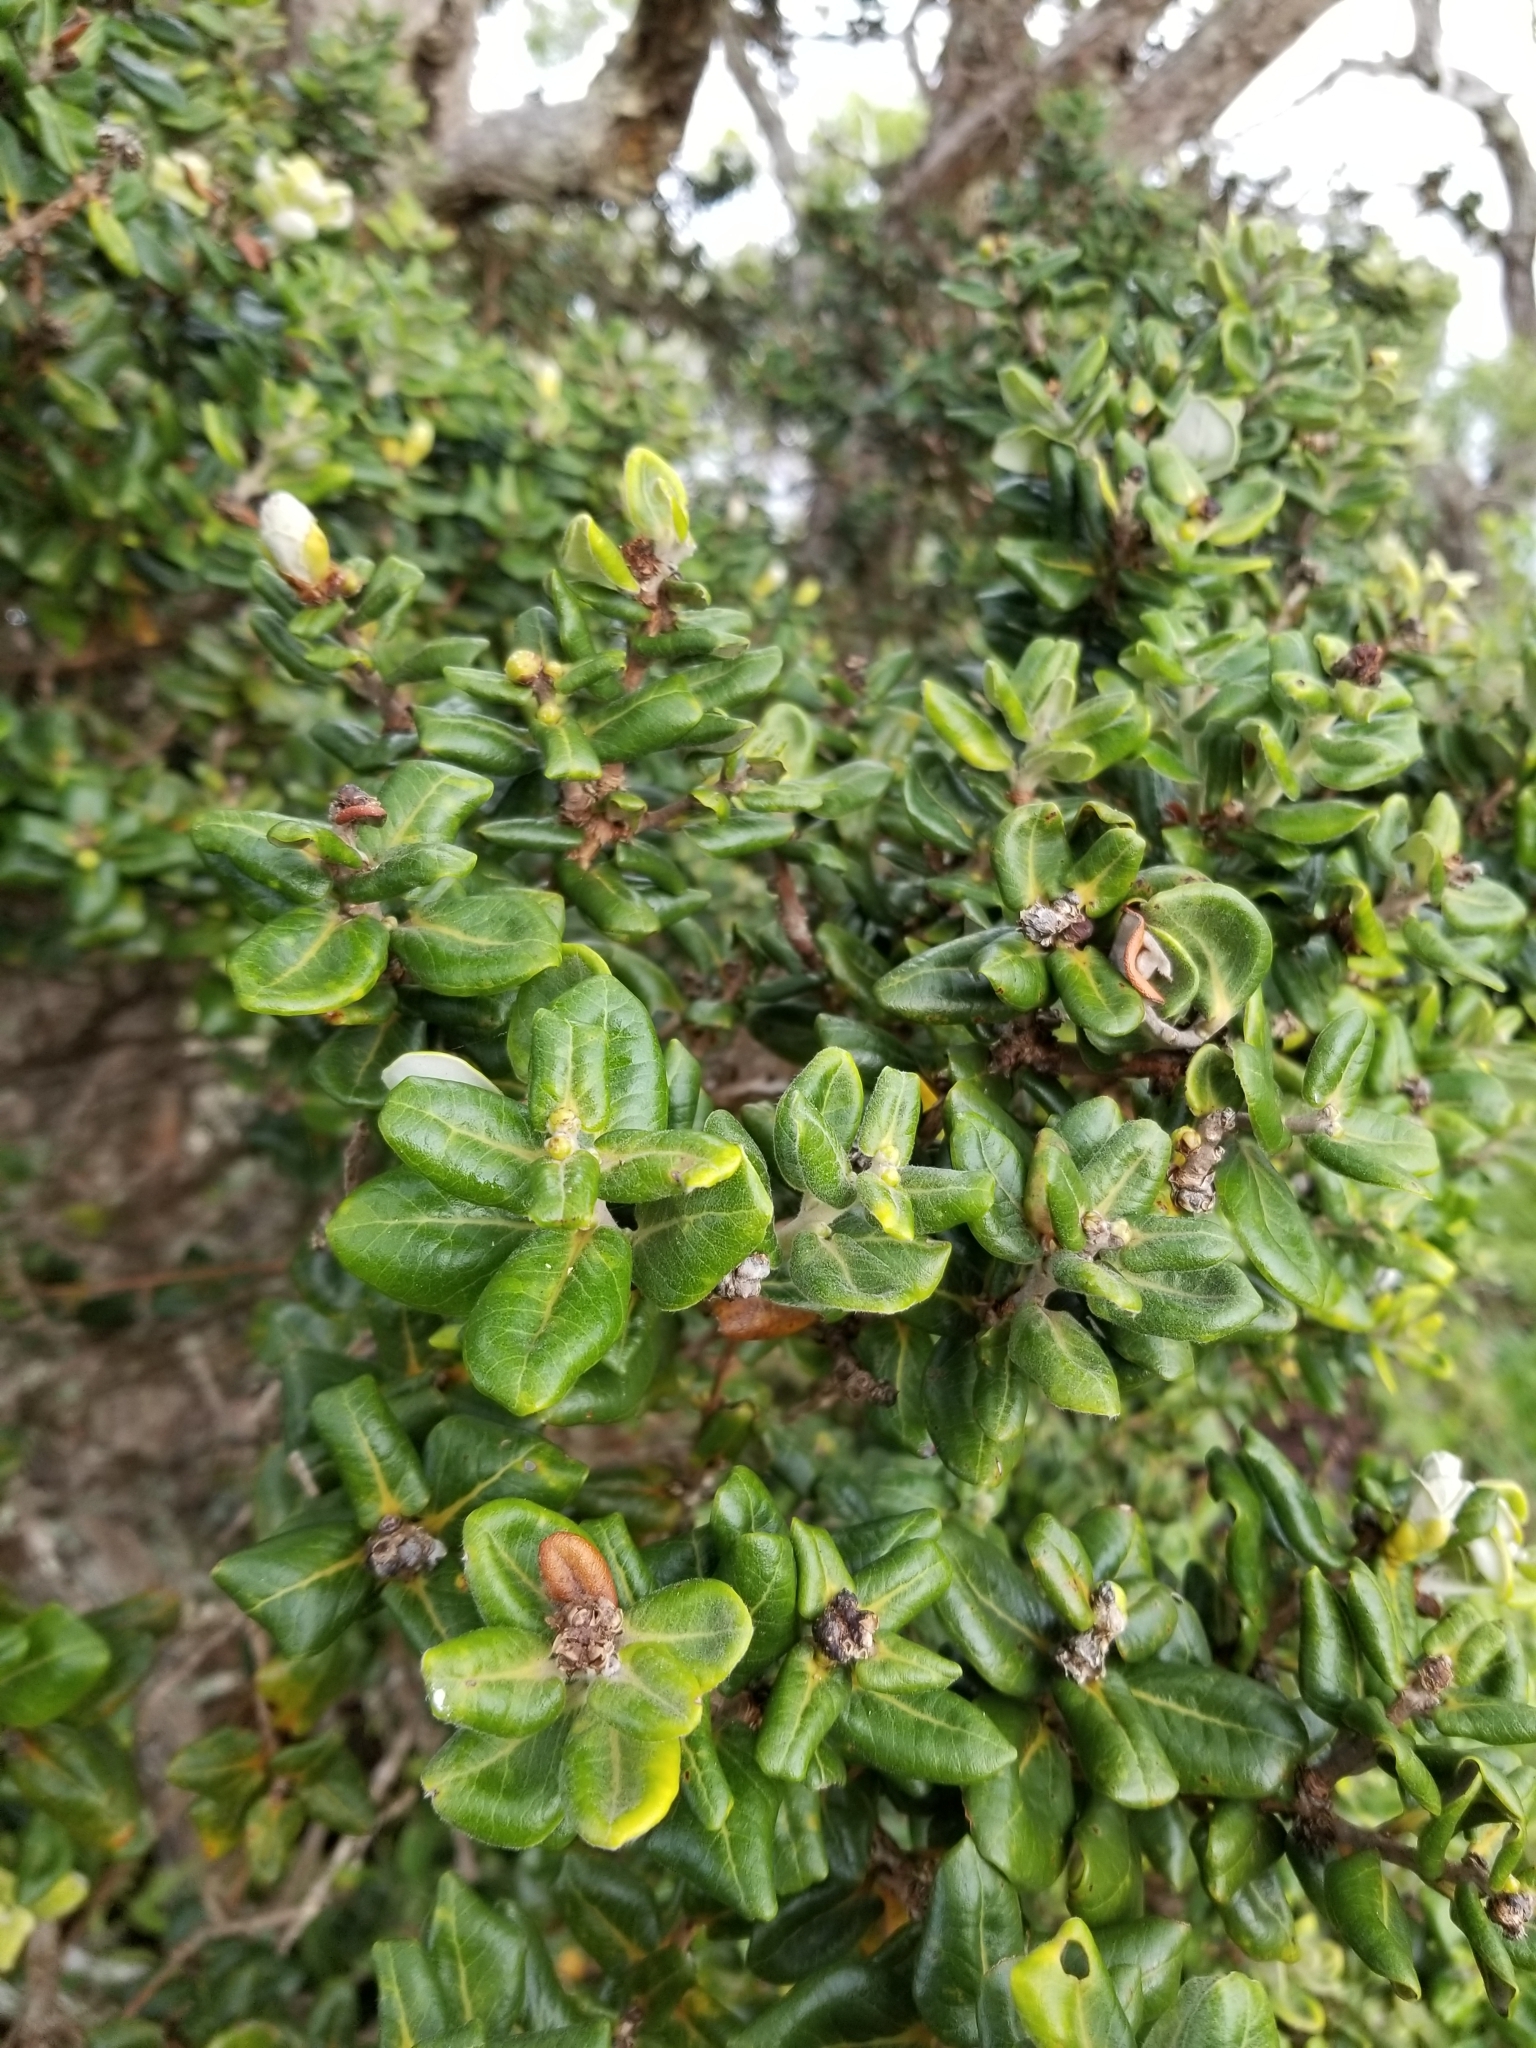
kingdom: Plantae
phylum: Tracheophyta
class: Magnoliopsida
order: Myrtales
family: Myrtaceae
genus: Metrosideros
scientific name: Metrosideros polymorpha
